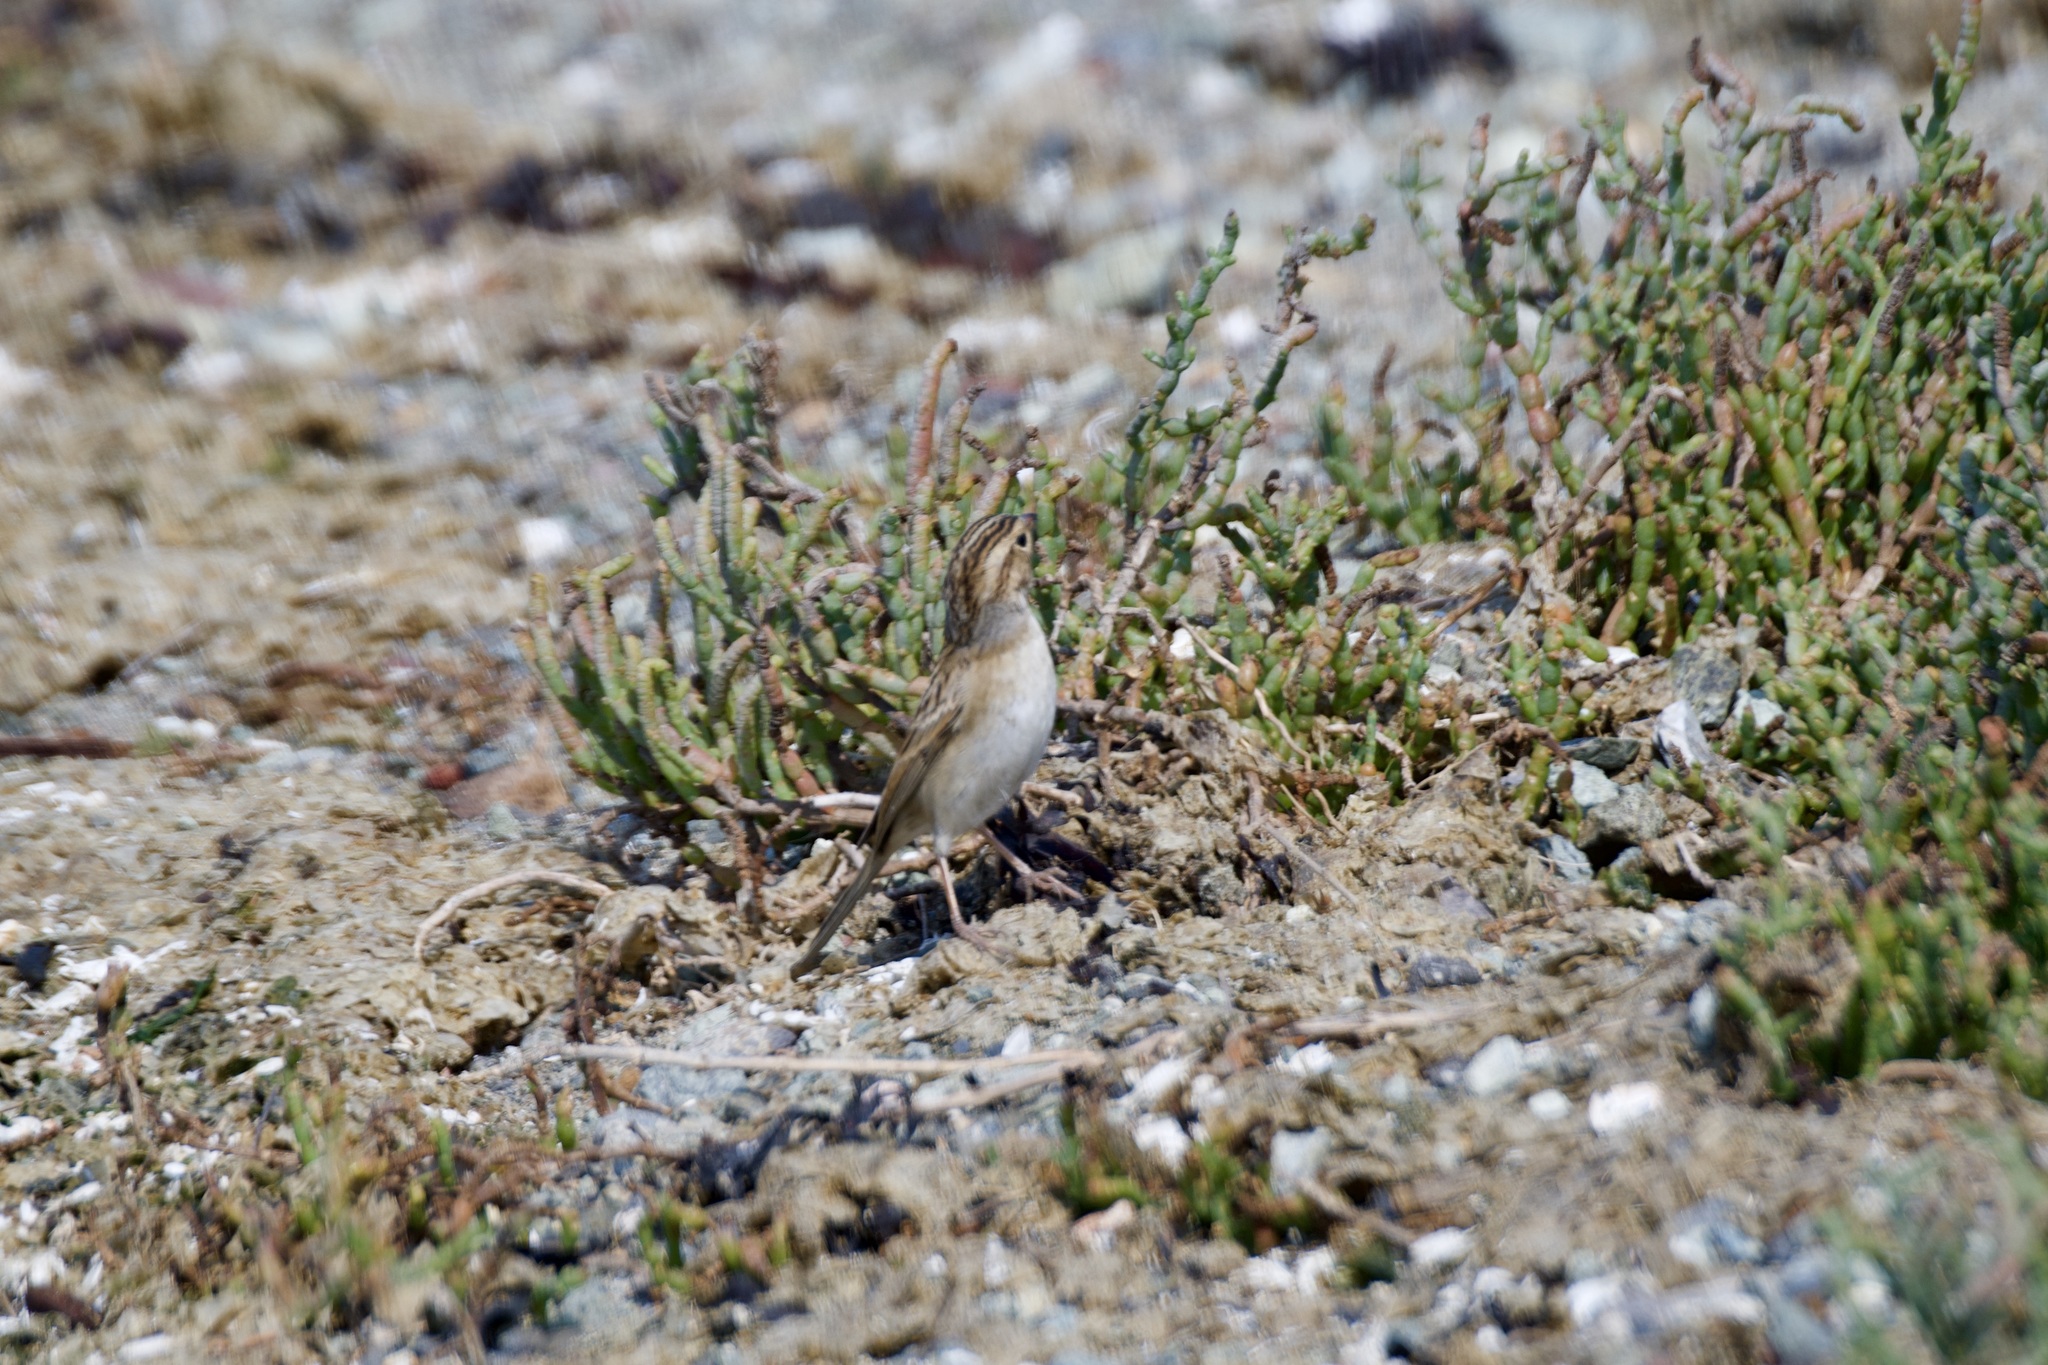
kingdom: Animalia
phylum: Chordata
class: Aves
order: Passeriformes
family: Passerellidae
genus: Spizella
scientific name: Spizella pallida
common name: Clay-colored sparrow
